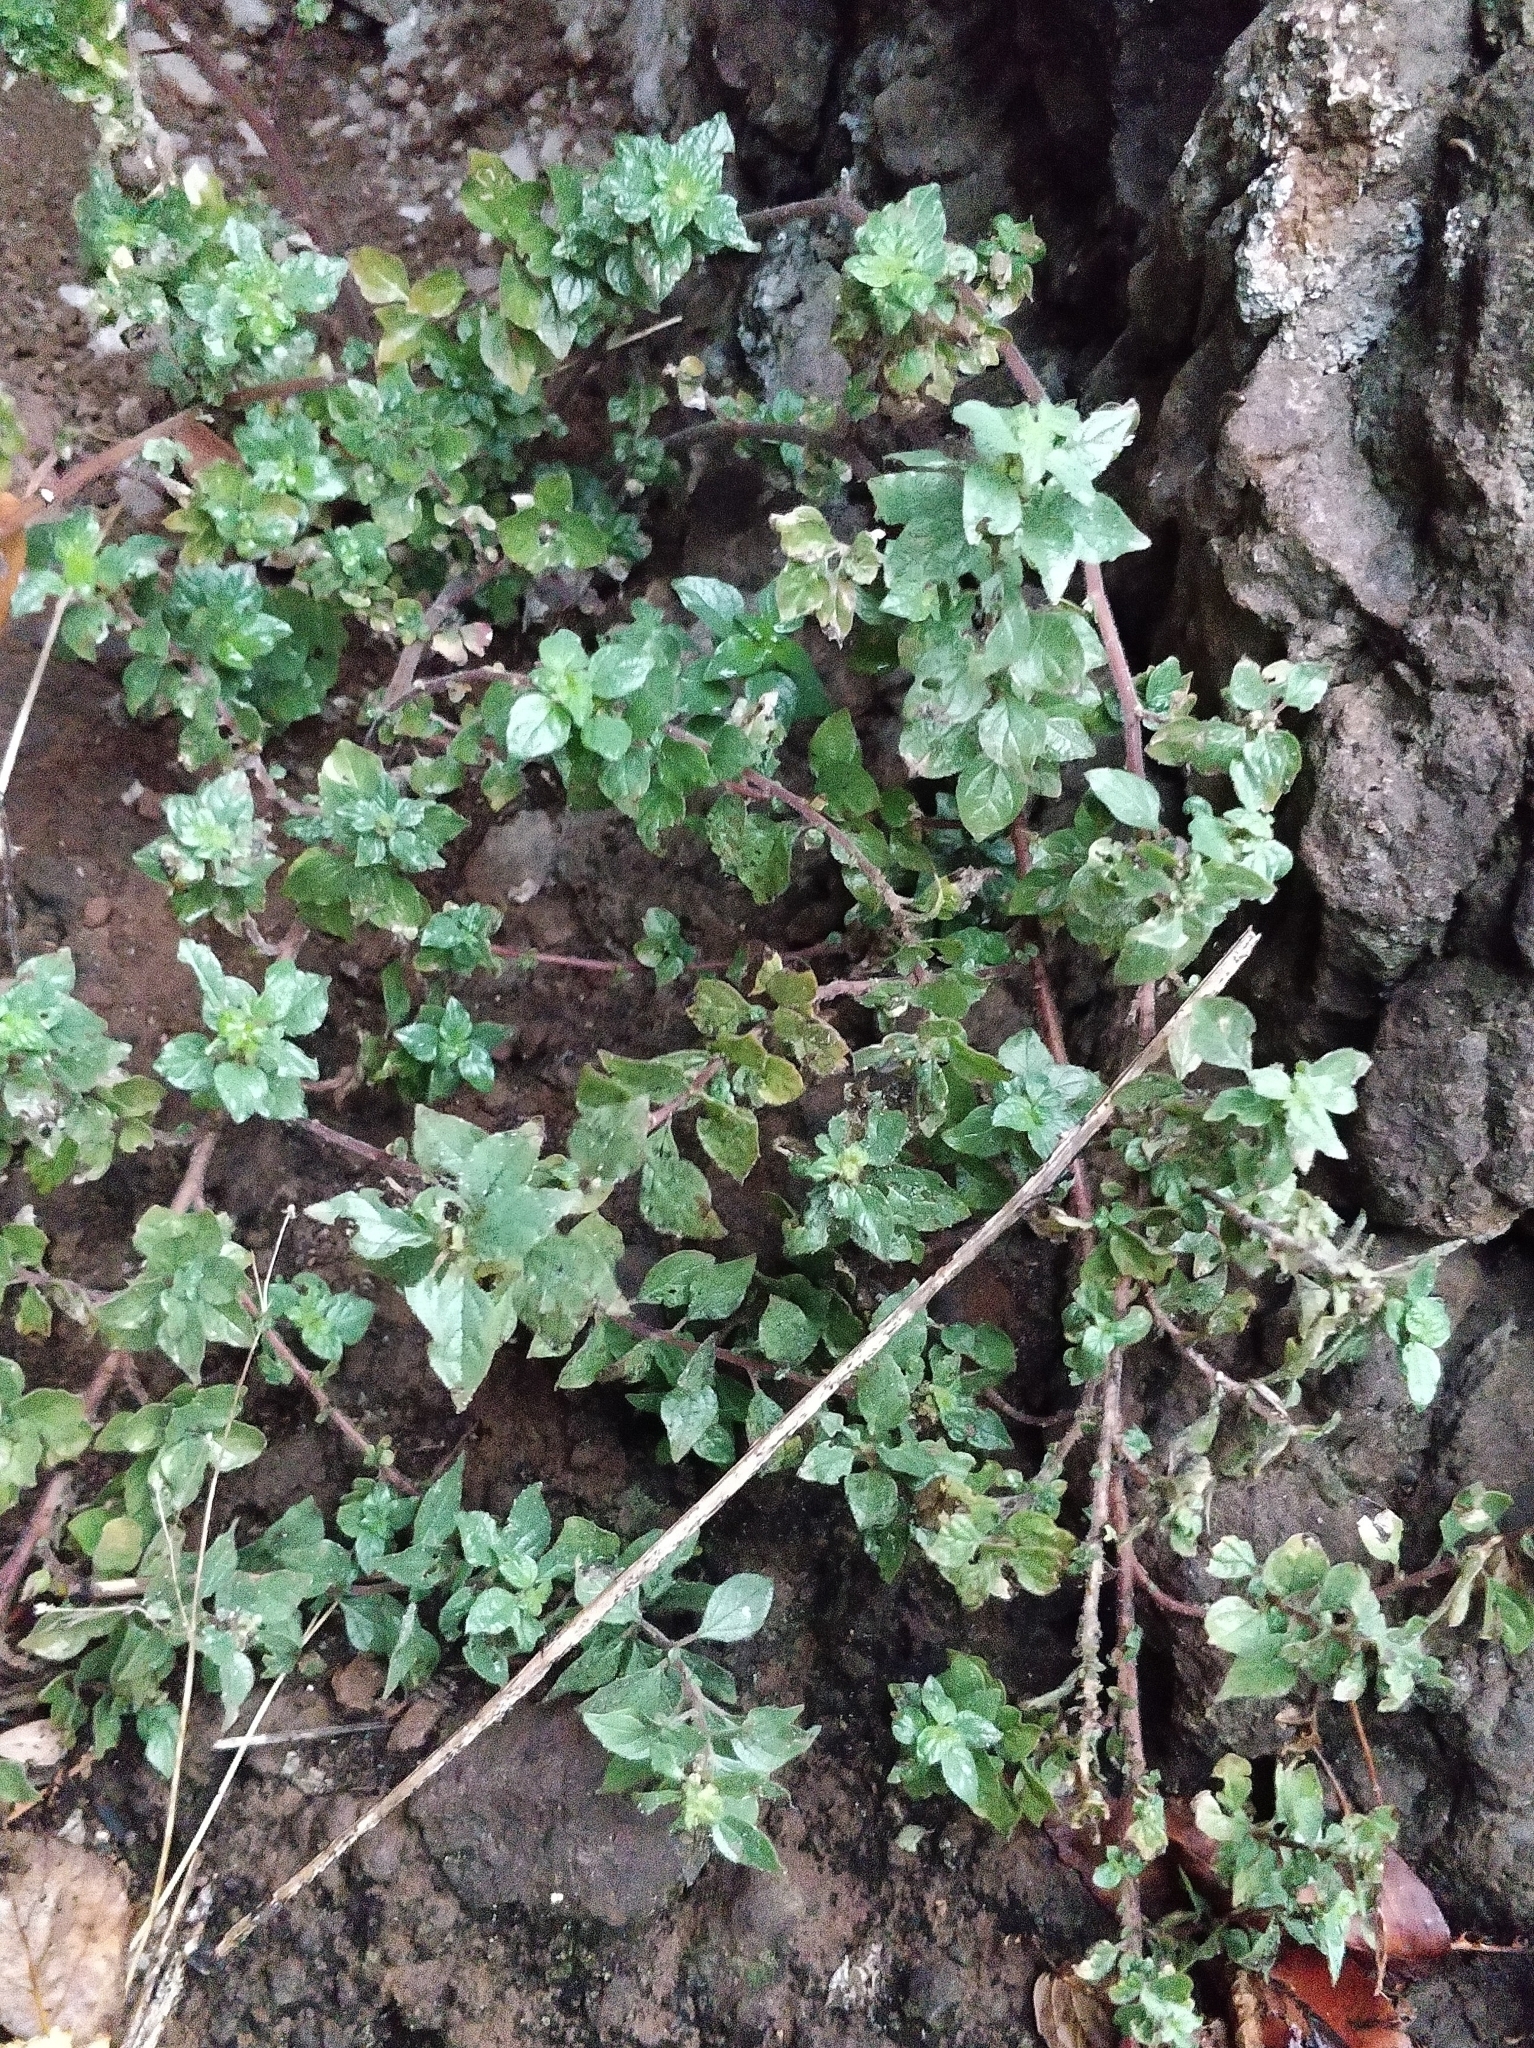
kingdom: Plantae
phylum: Tracheophyta
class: Magnoliopsida
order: Rosales
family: Urticaceae
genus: Parietaria
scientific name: Parietaria judaica
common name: Pellitory-of-the-wall
